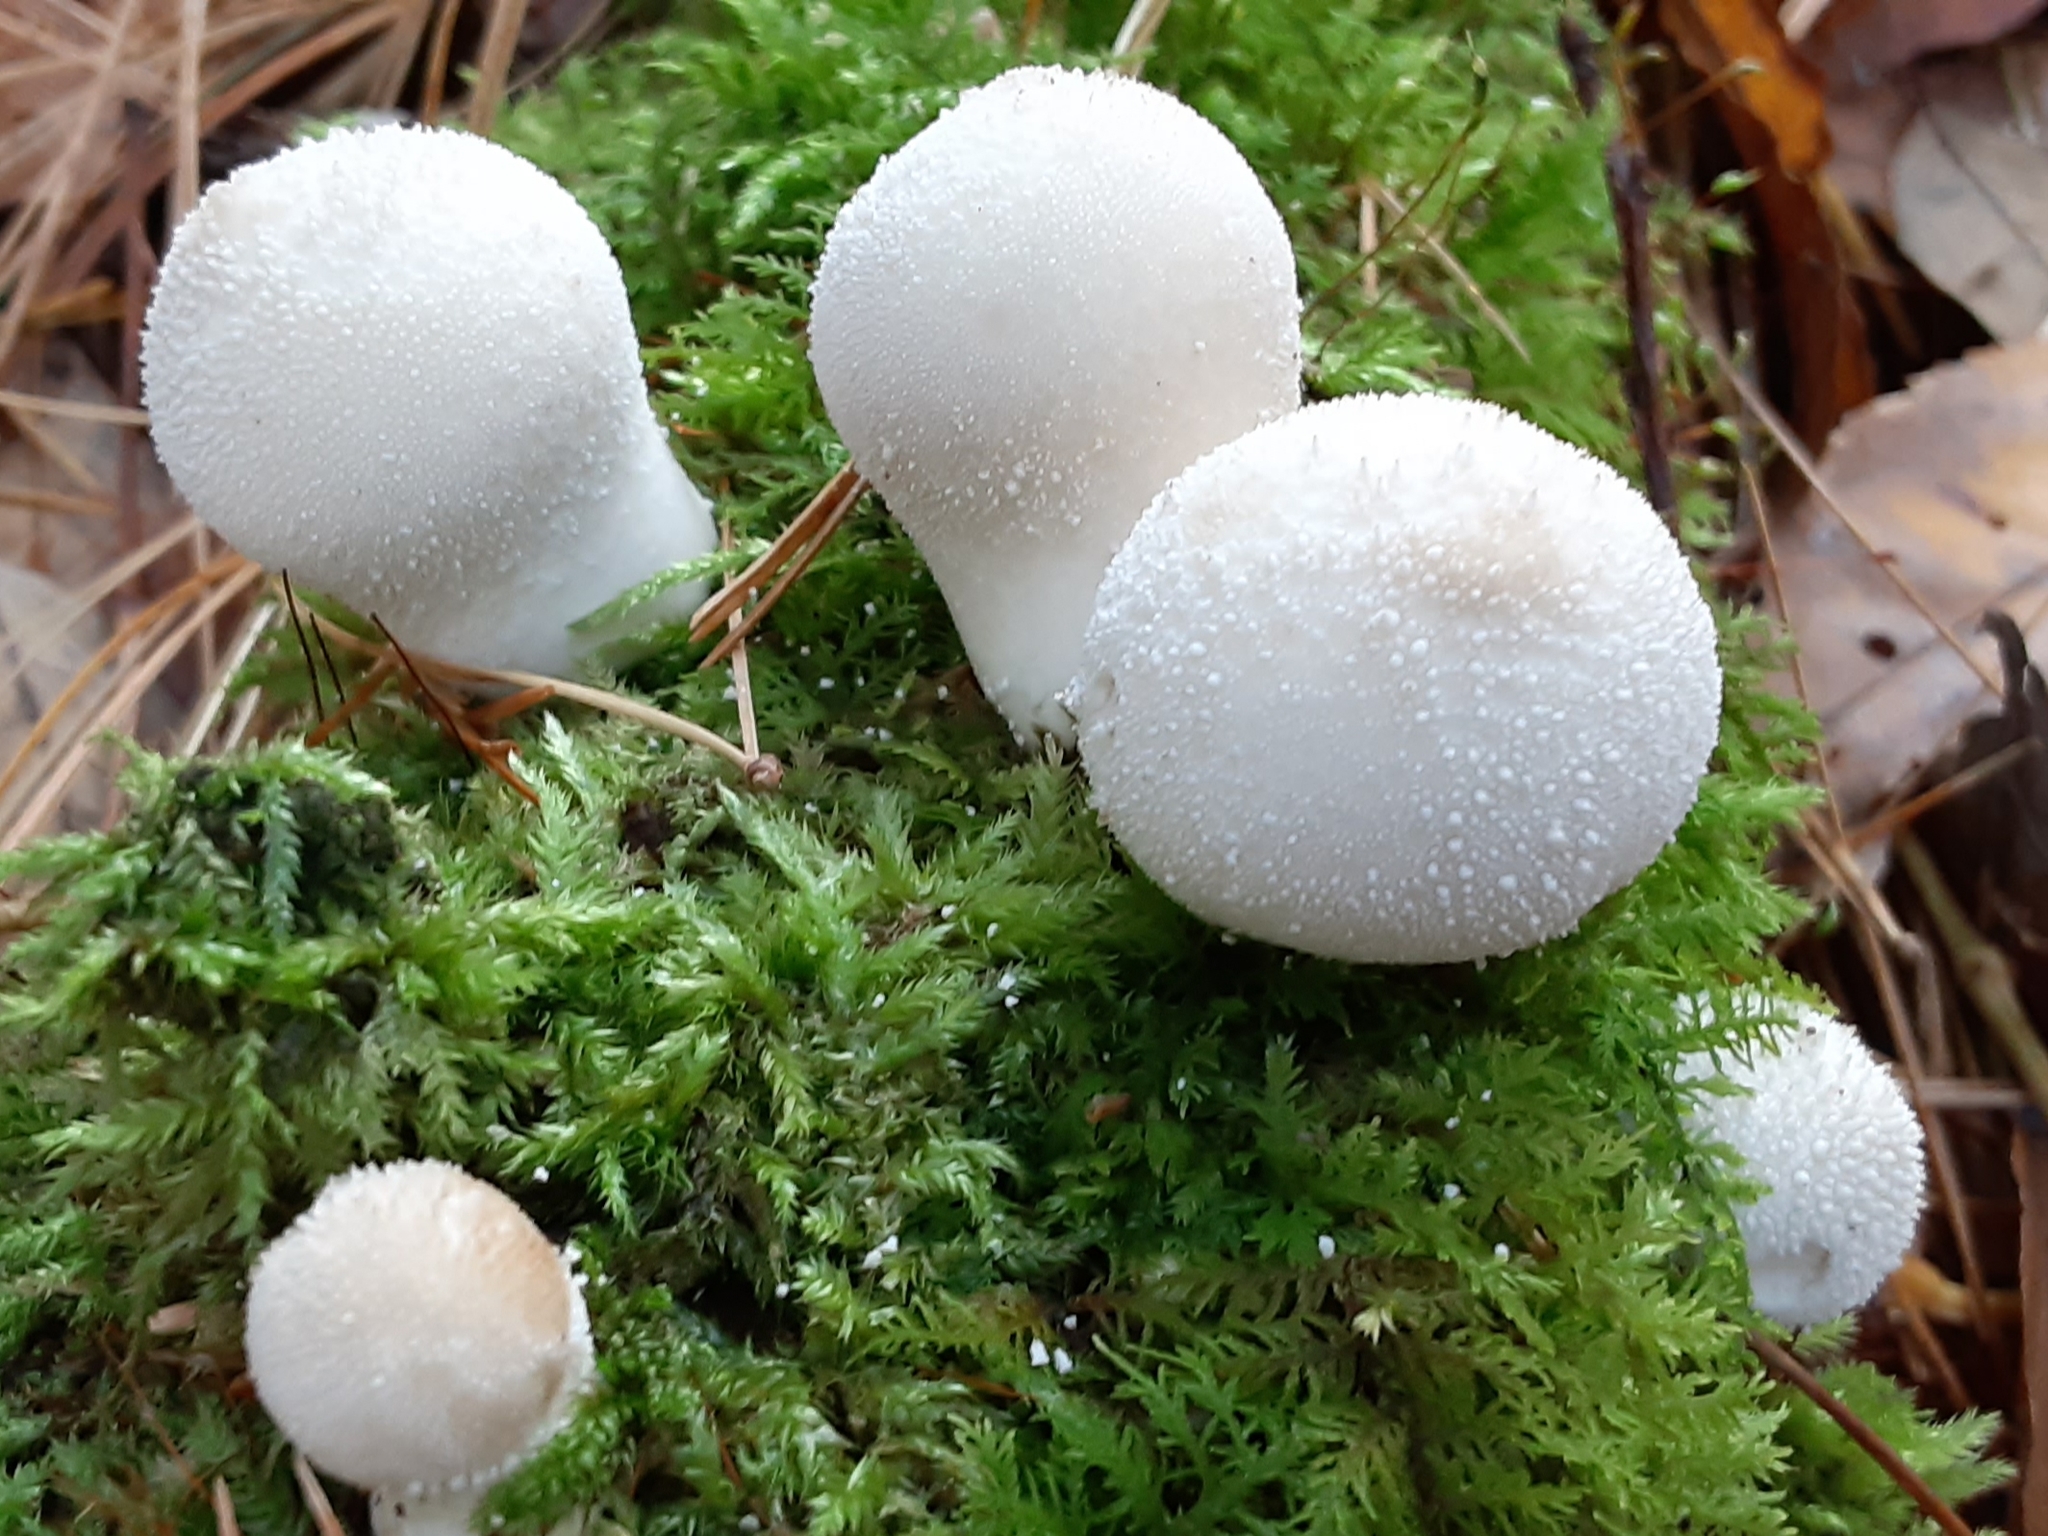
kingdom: Fungi
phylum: Basidiomycota
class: Agaricomycetes
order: Agaricales
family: Lycoperdaceae
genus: Lycoperdon
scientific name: Lycoperdon perlatum
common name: Common puffball
